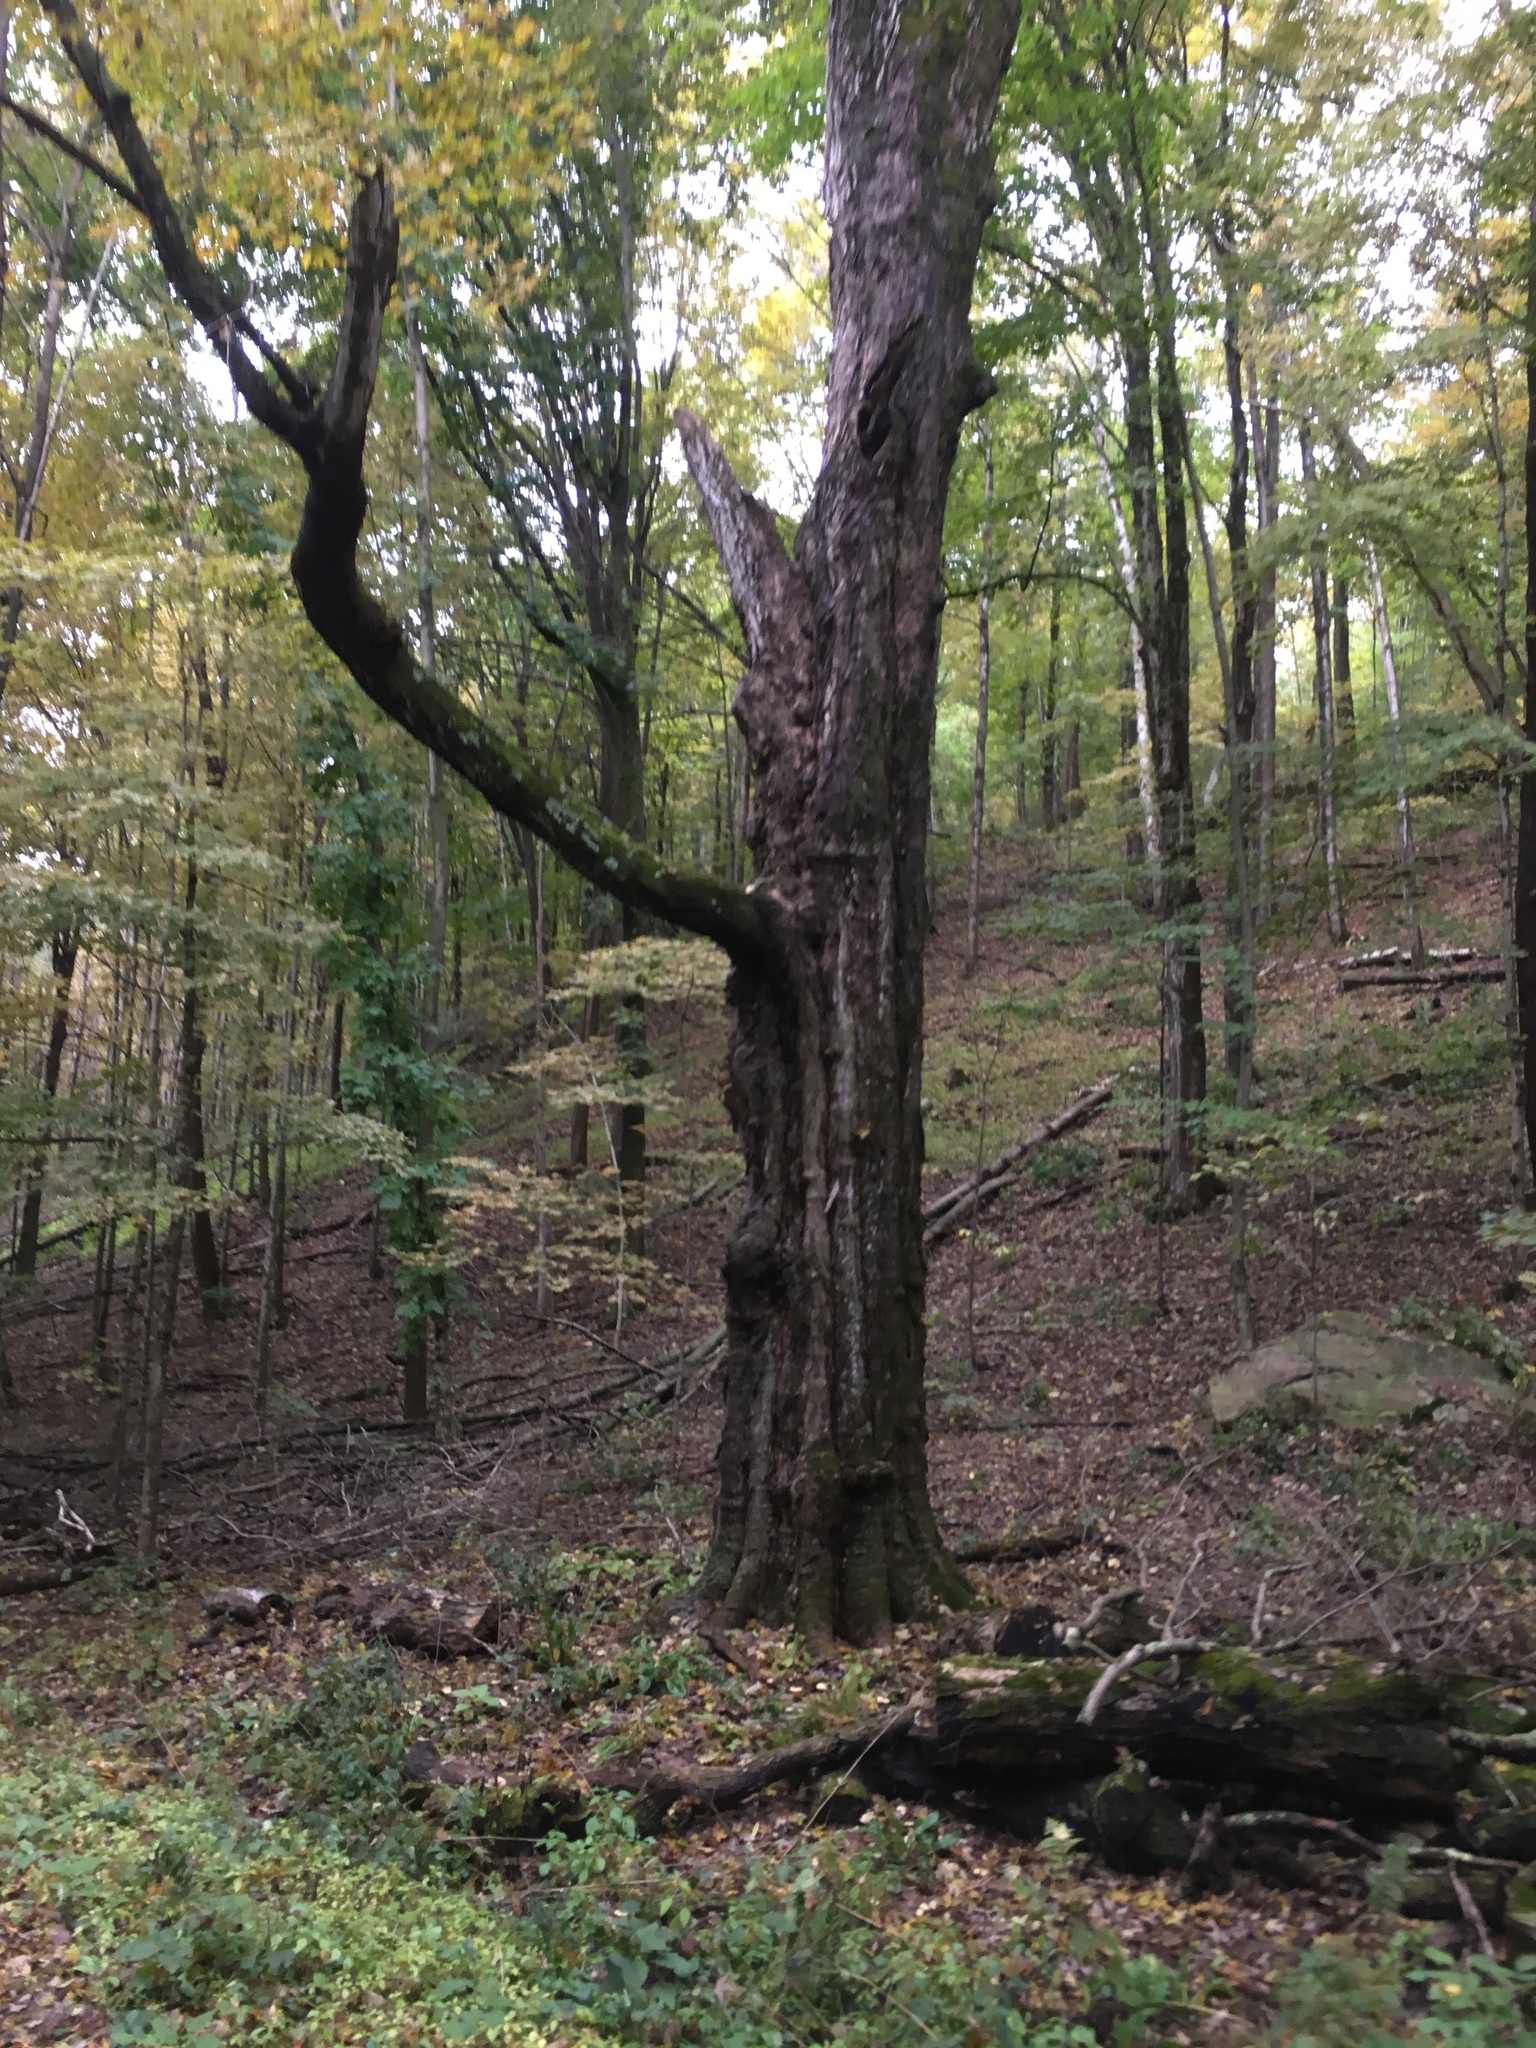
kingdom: Plantae
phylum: Tracheophyta
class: Magnoliopsida
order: Sapindales
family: Sapindaceae
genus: Acer
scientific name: Acer saccharum
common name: Sugar maple
